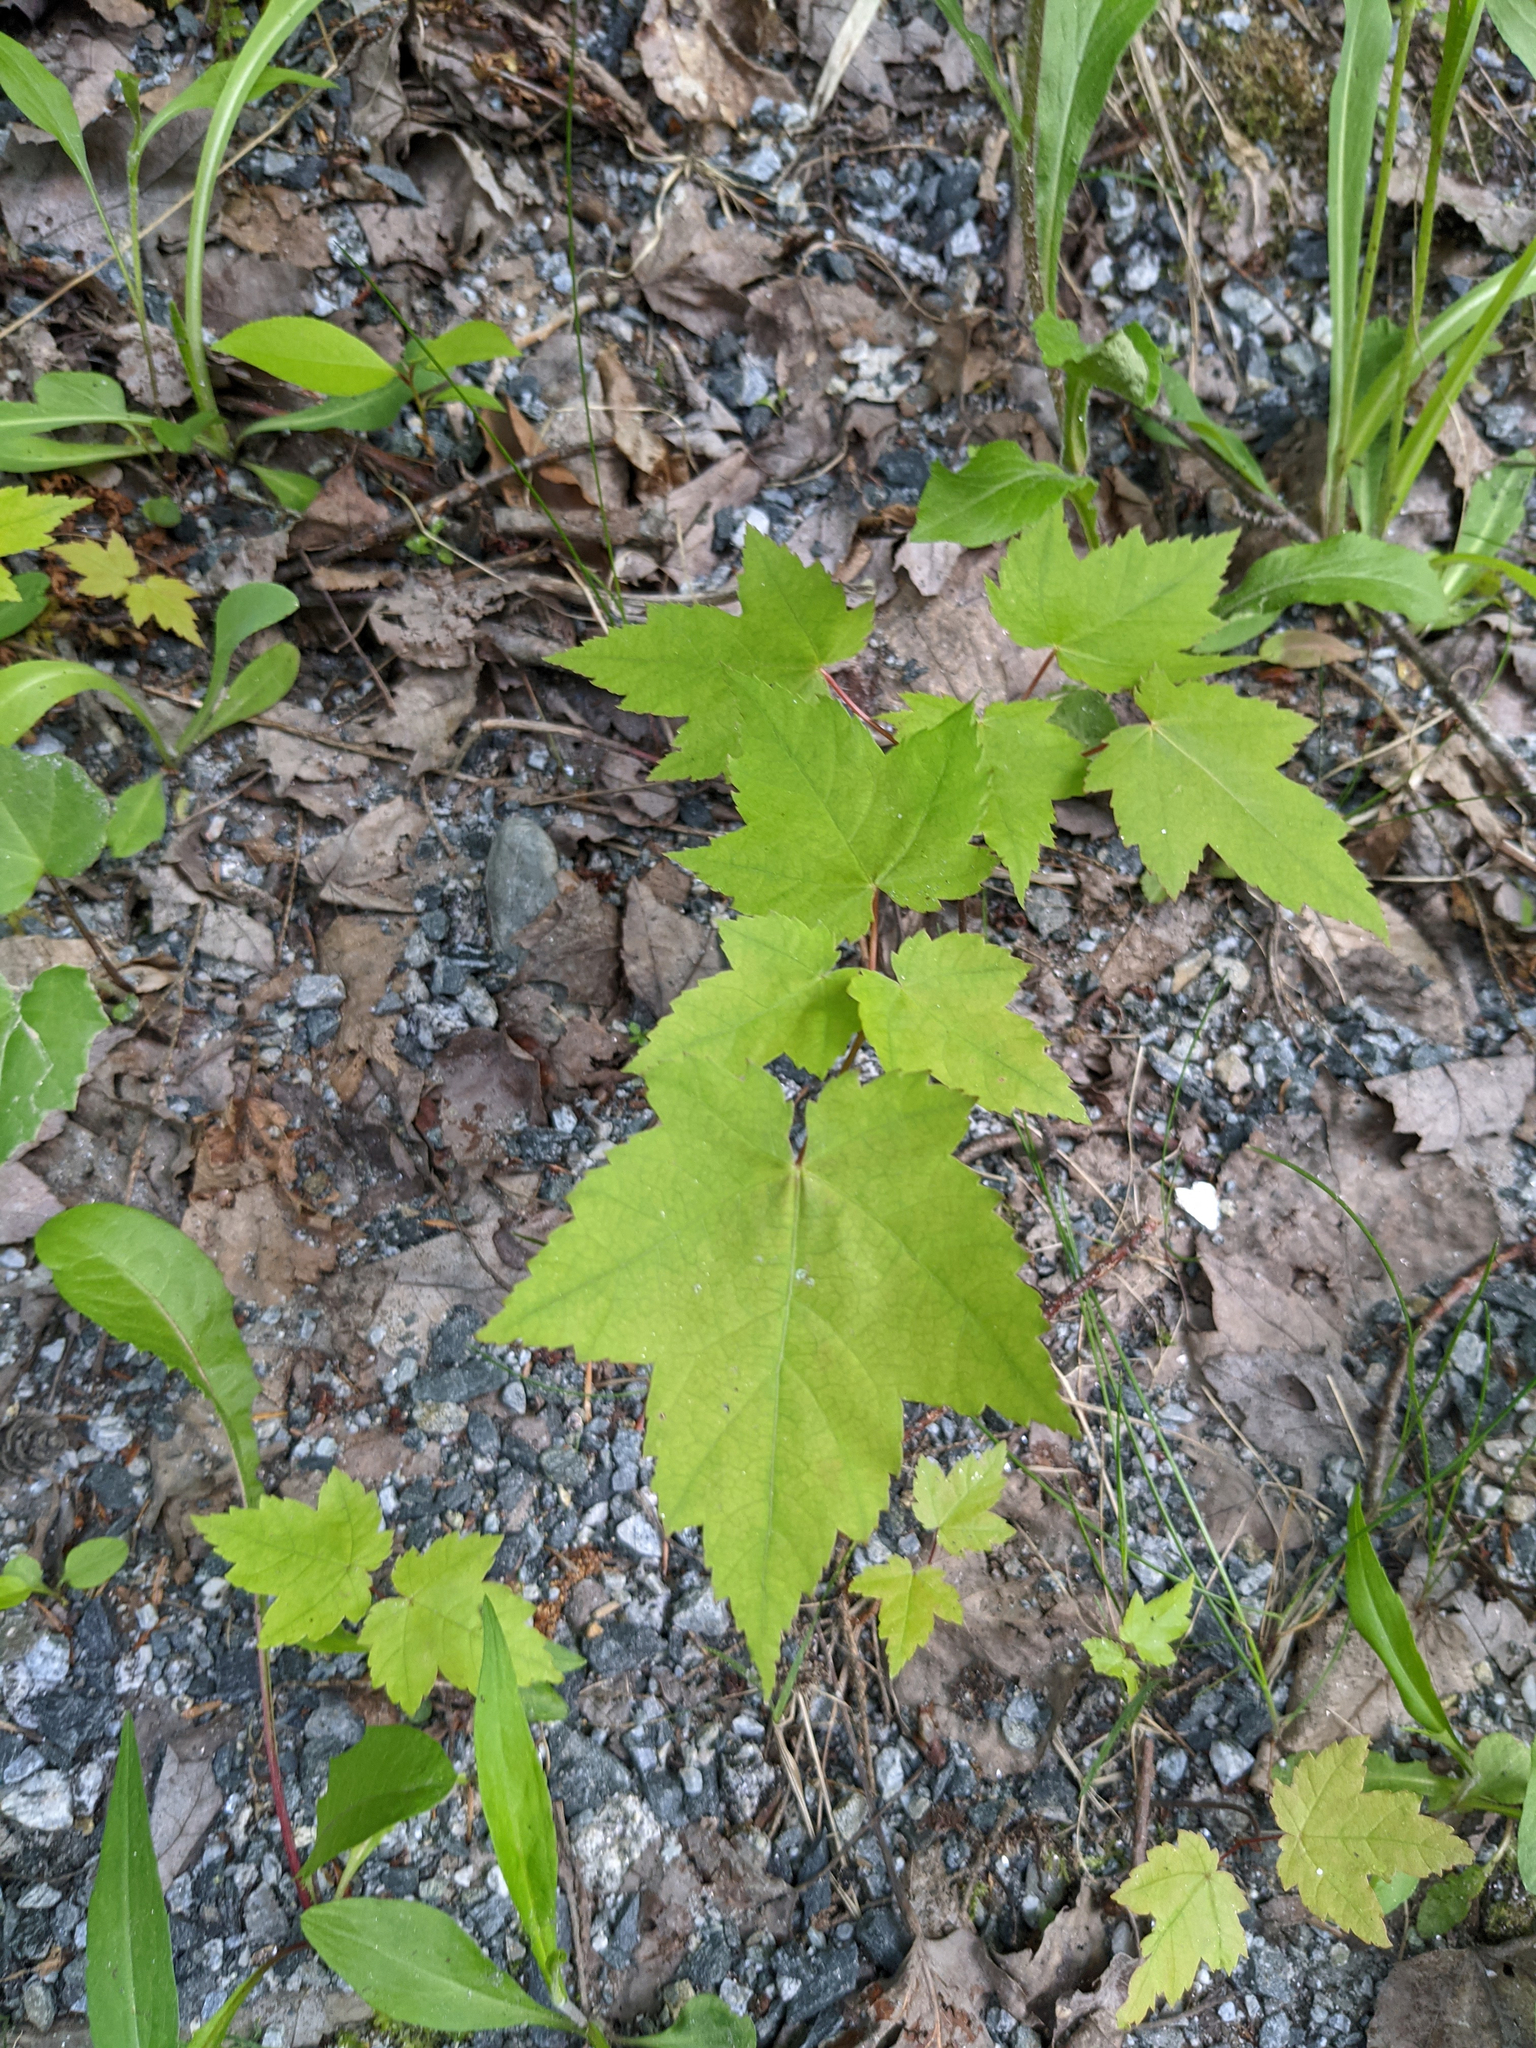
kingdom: Plantae
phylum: Tracheophyta
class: Magnoliopsida
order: Sapindales
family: Sapindaceae
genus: Acer
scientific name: Acer rubrum
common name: Red maple
